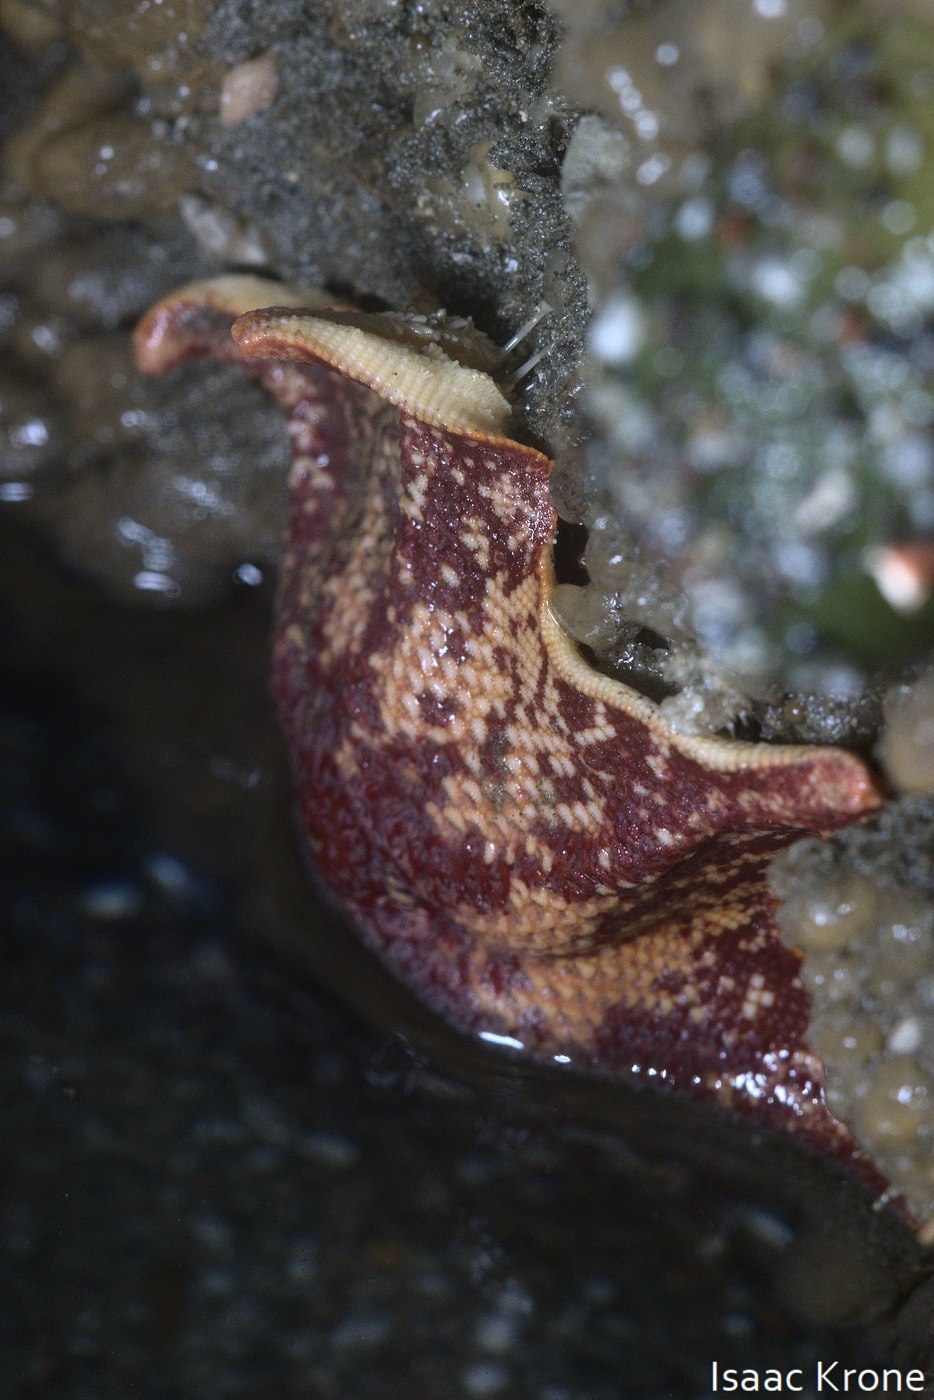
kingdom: Animalia
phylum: Echinodermata
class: Asteroidea
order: Valvatida
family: Asterinidae
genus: Patiria
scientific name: Patiria miniata
